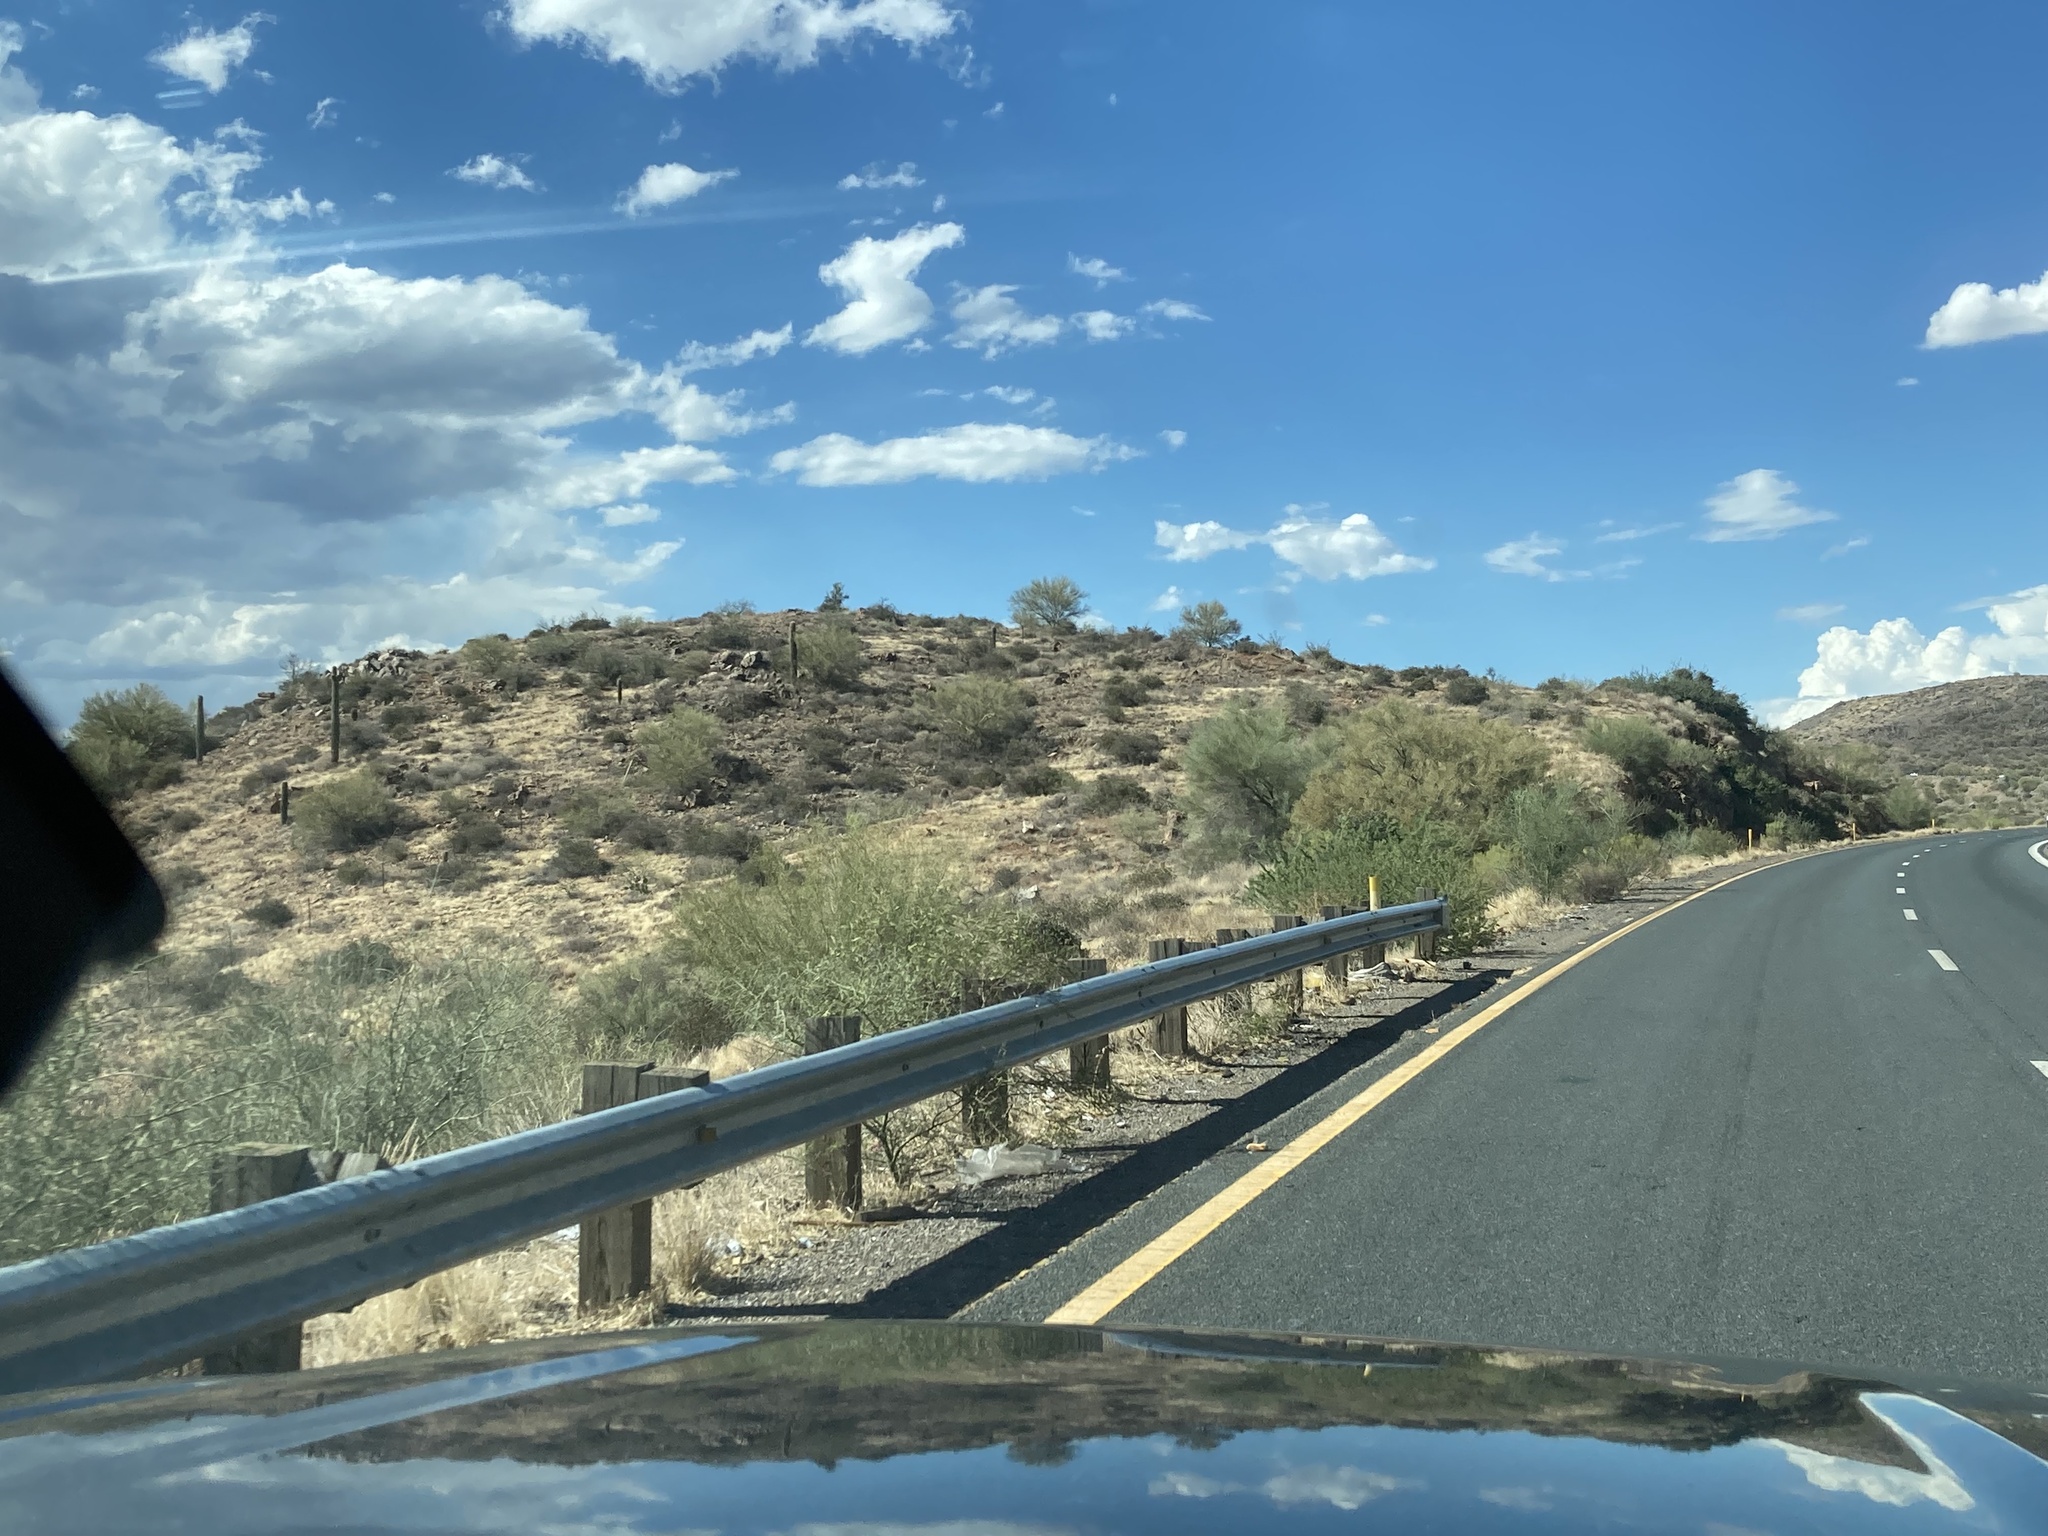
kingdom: Plantae
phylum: Tracheophyta
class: Magnoliopsida
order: Caryophyllales
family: Cactaceae
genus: Carnegiea
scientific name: Carnegiea gigantea
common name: Saguaro
